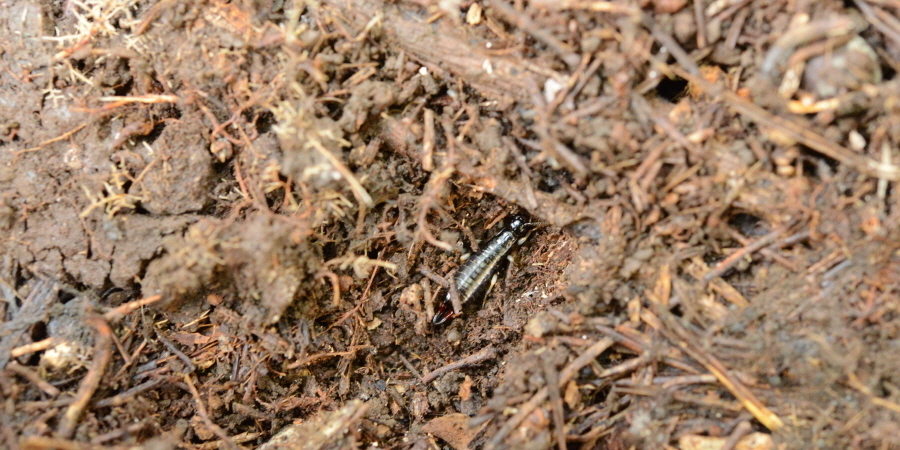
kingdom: Animalia
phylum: Arthropoda
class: Insecta
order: Dermaptera
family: Anisolabididae
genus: Anisolabella
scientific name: Anisolabella marginalis
